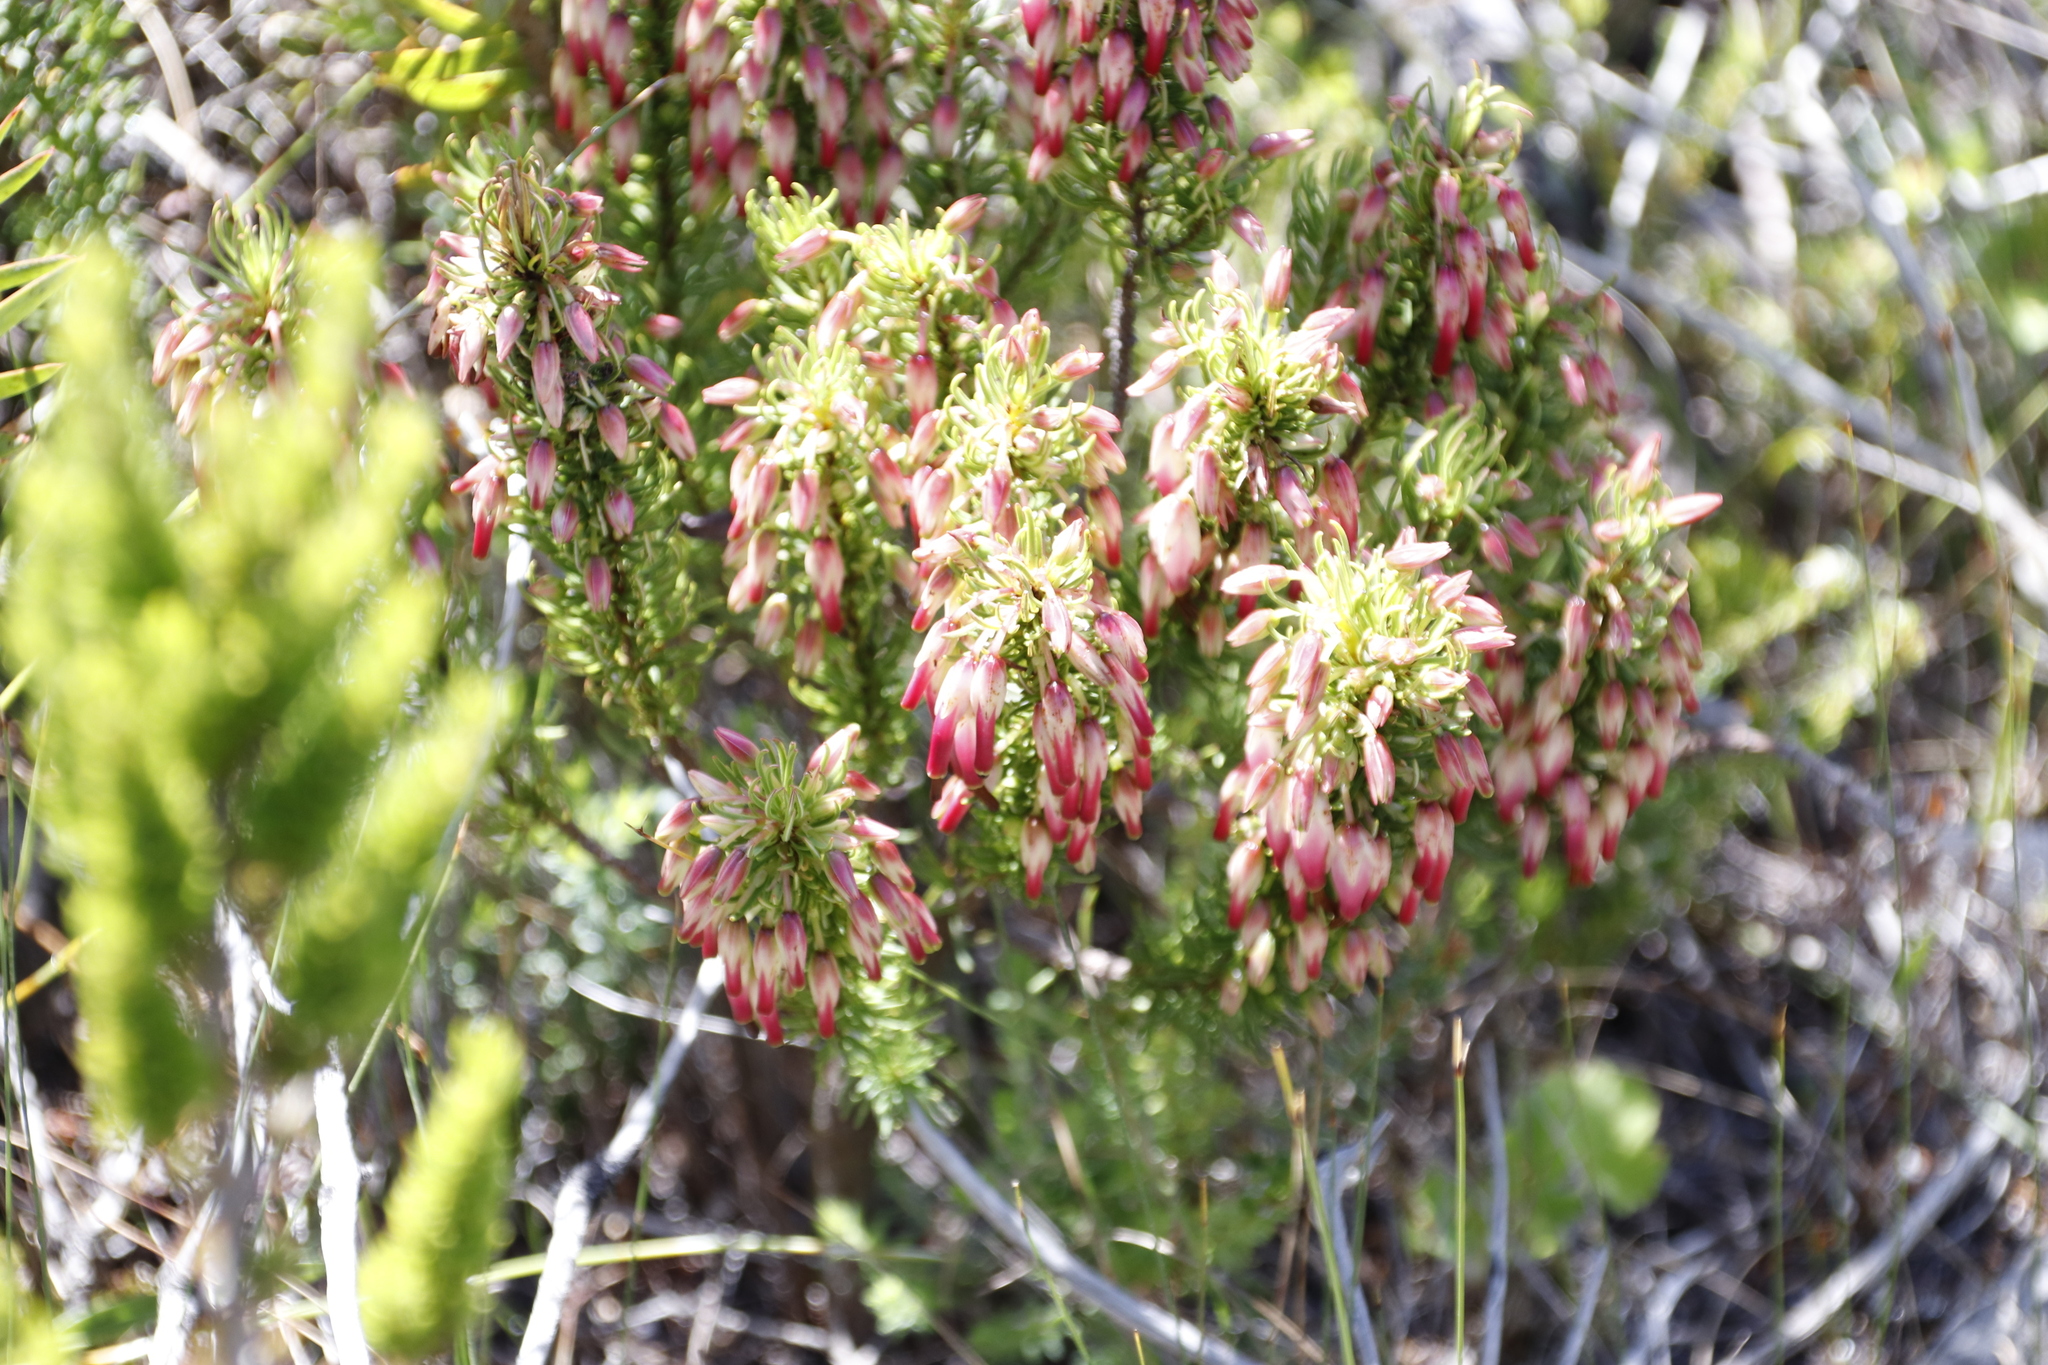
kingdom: Plantae
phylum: Tracheophyta
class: Magnoliopsida
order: Ericales
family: Ericaceae
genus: Erica
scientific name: Erica plukenetii
